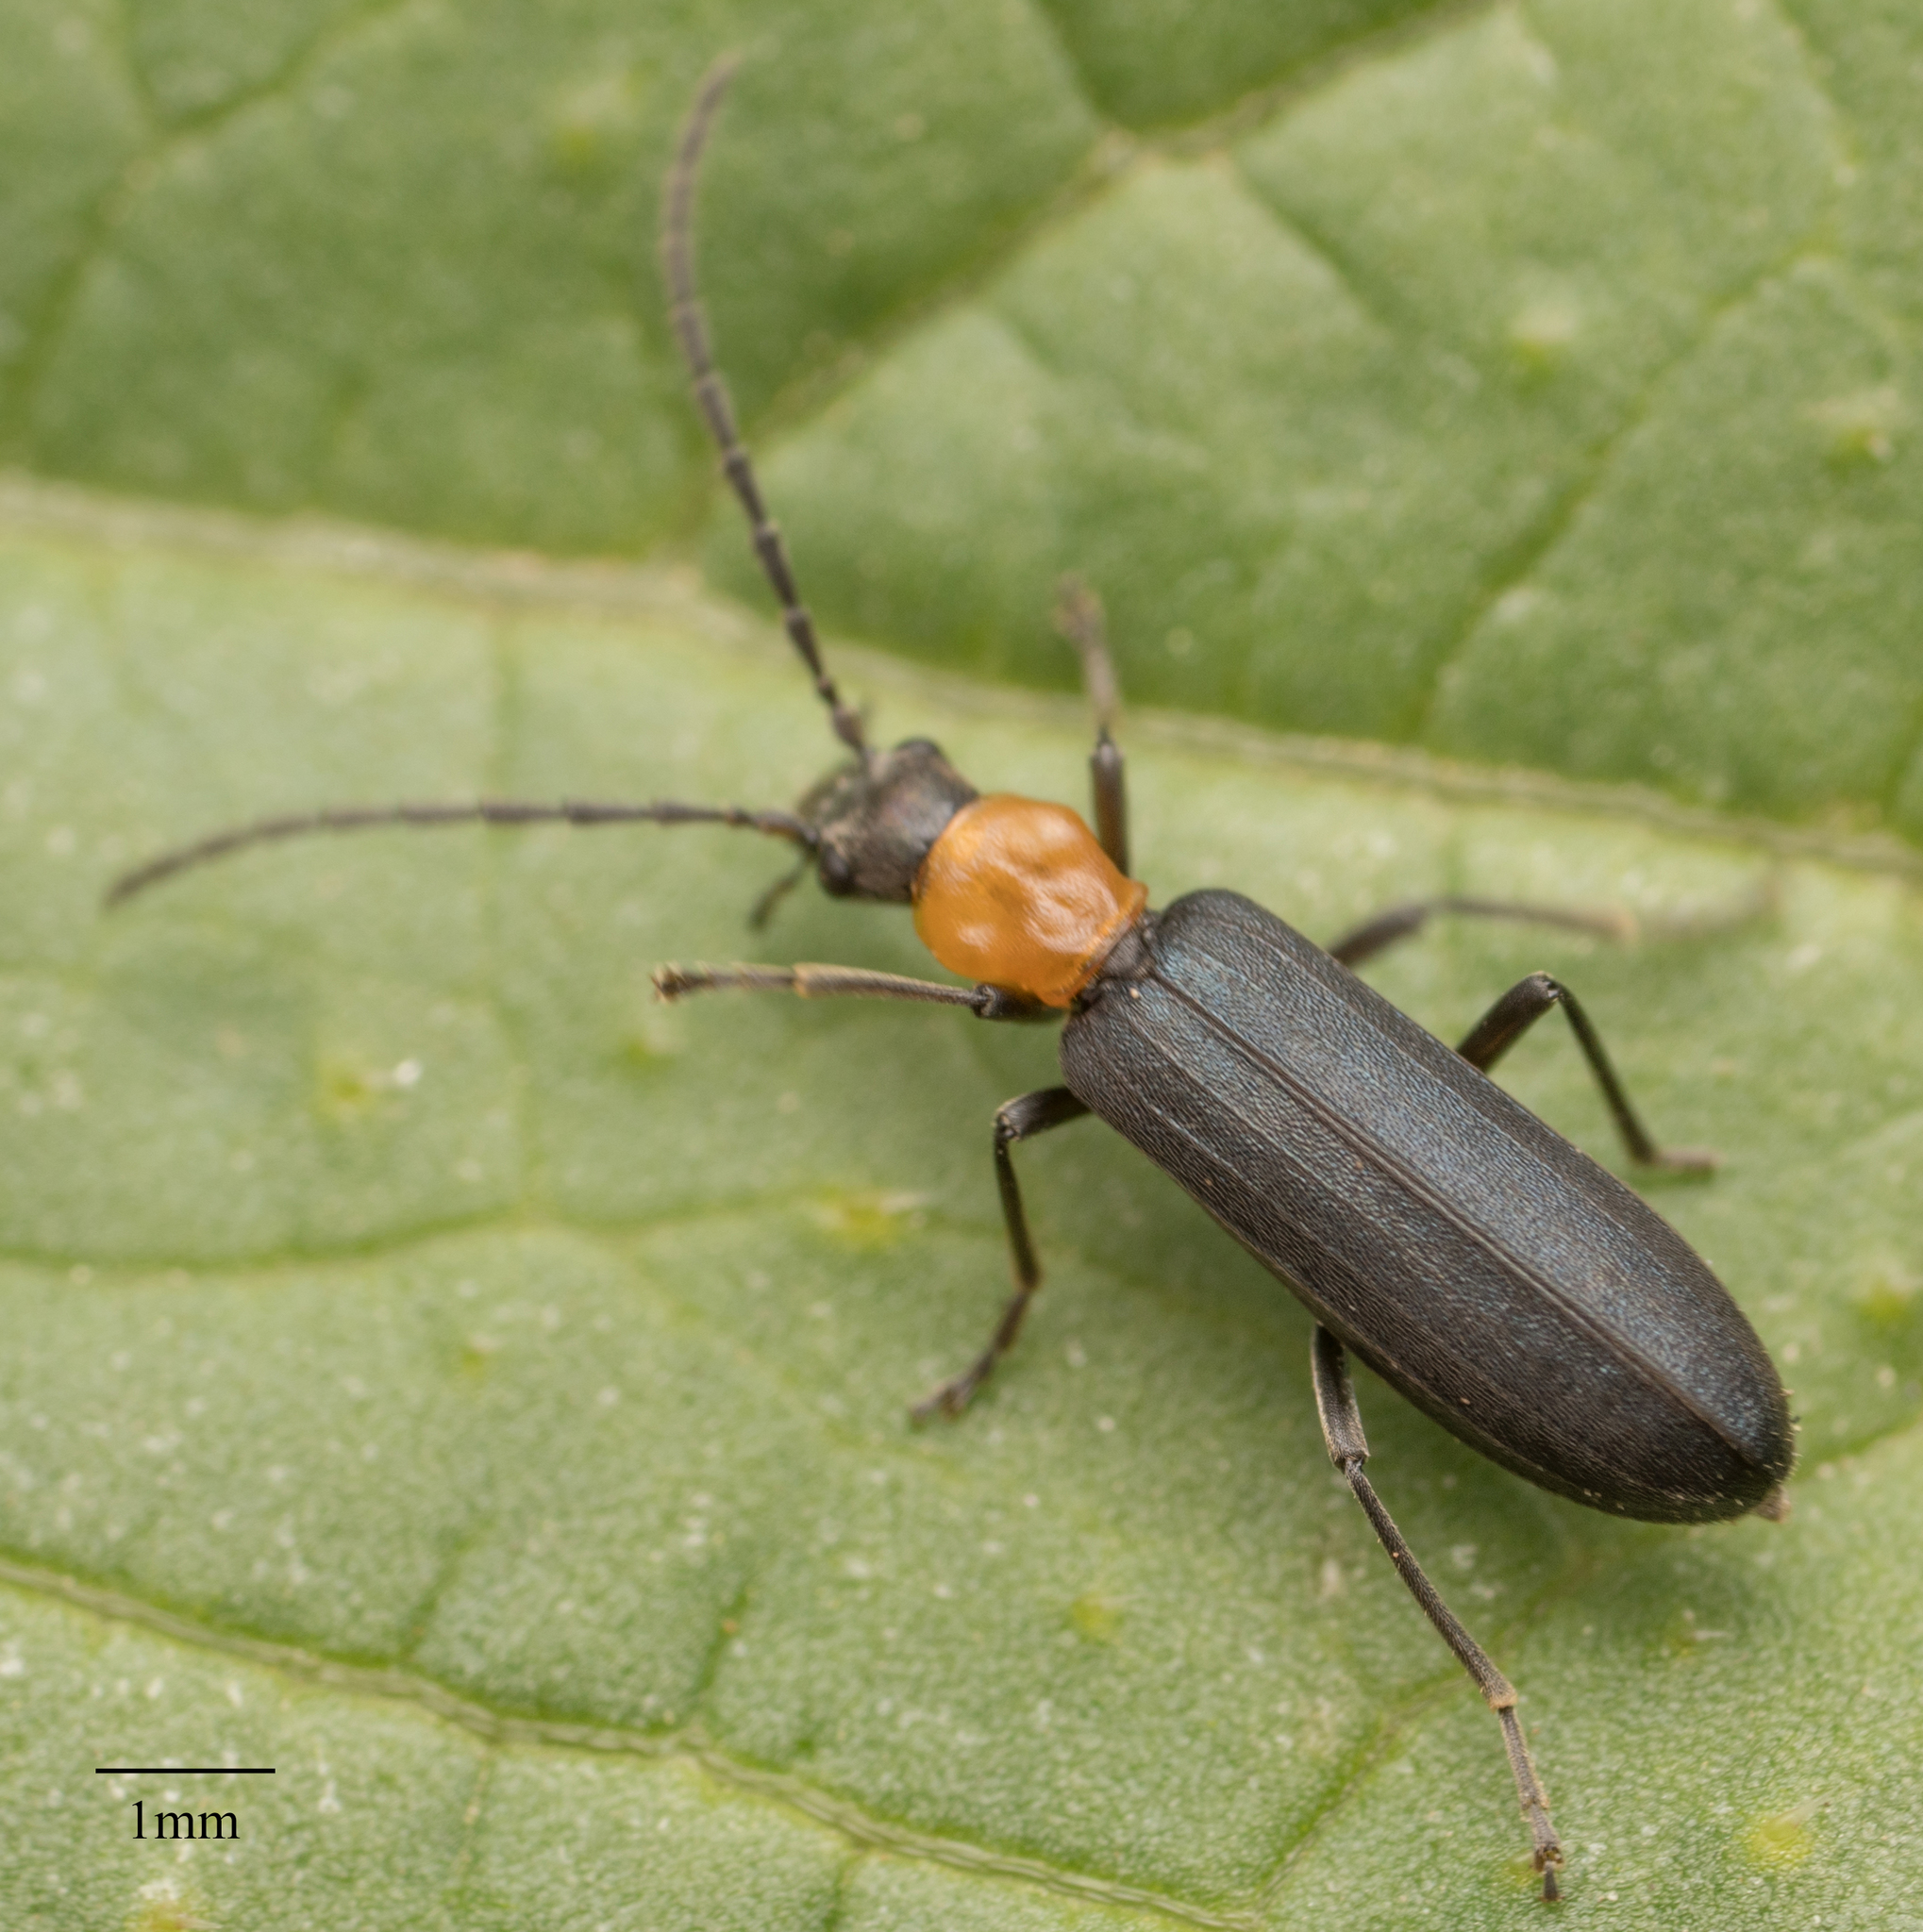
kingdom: Animalia
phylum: Arthropoda
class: Insecta
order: Coleoptera
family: Oedemeridae
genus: Ischnomera
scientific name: Ischnomera
